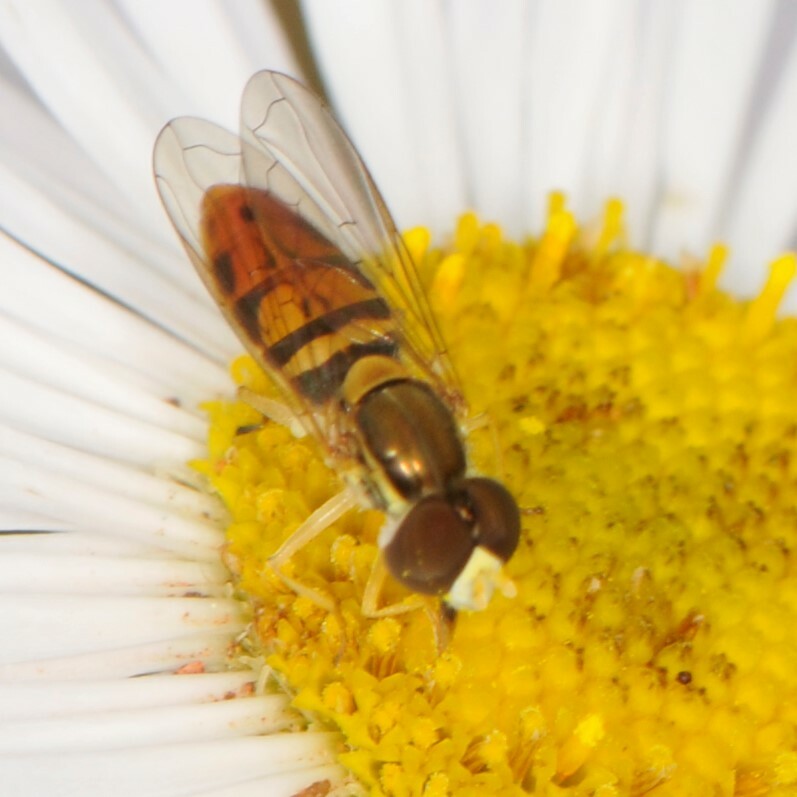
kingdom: Animalia
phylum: Arthropoda
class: Insecta
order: Diptera
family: Syrphidae
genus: Toxomerus
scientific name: Toxomerus marginatus
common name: Syrphid fly
